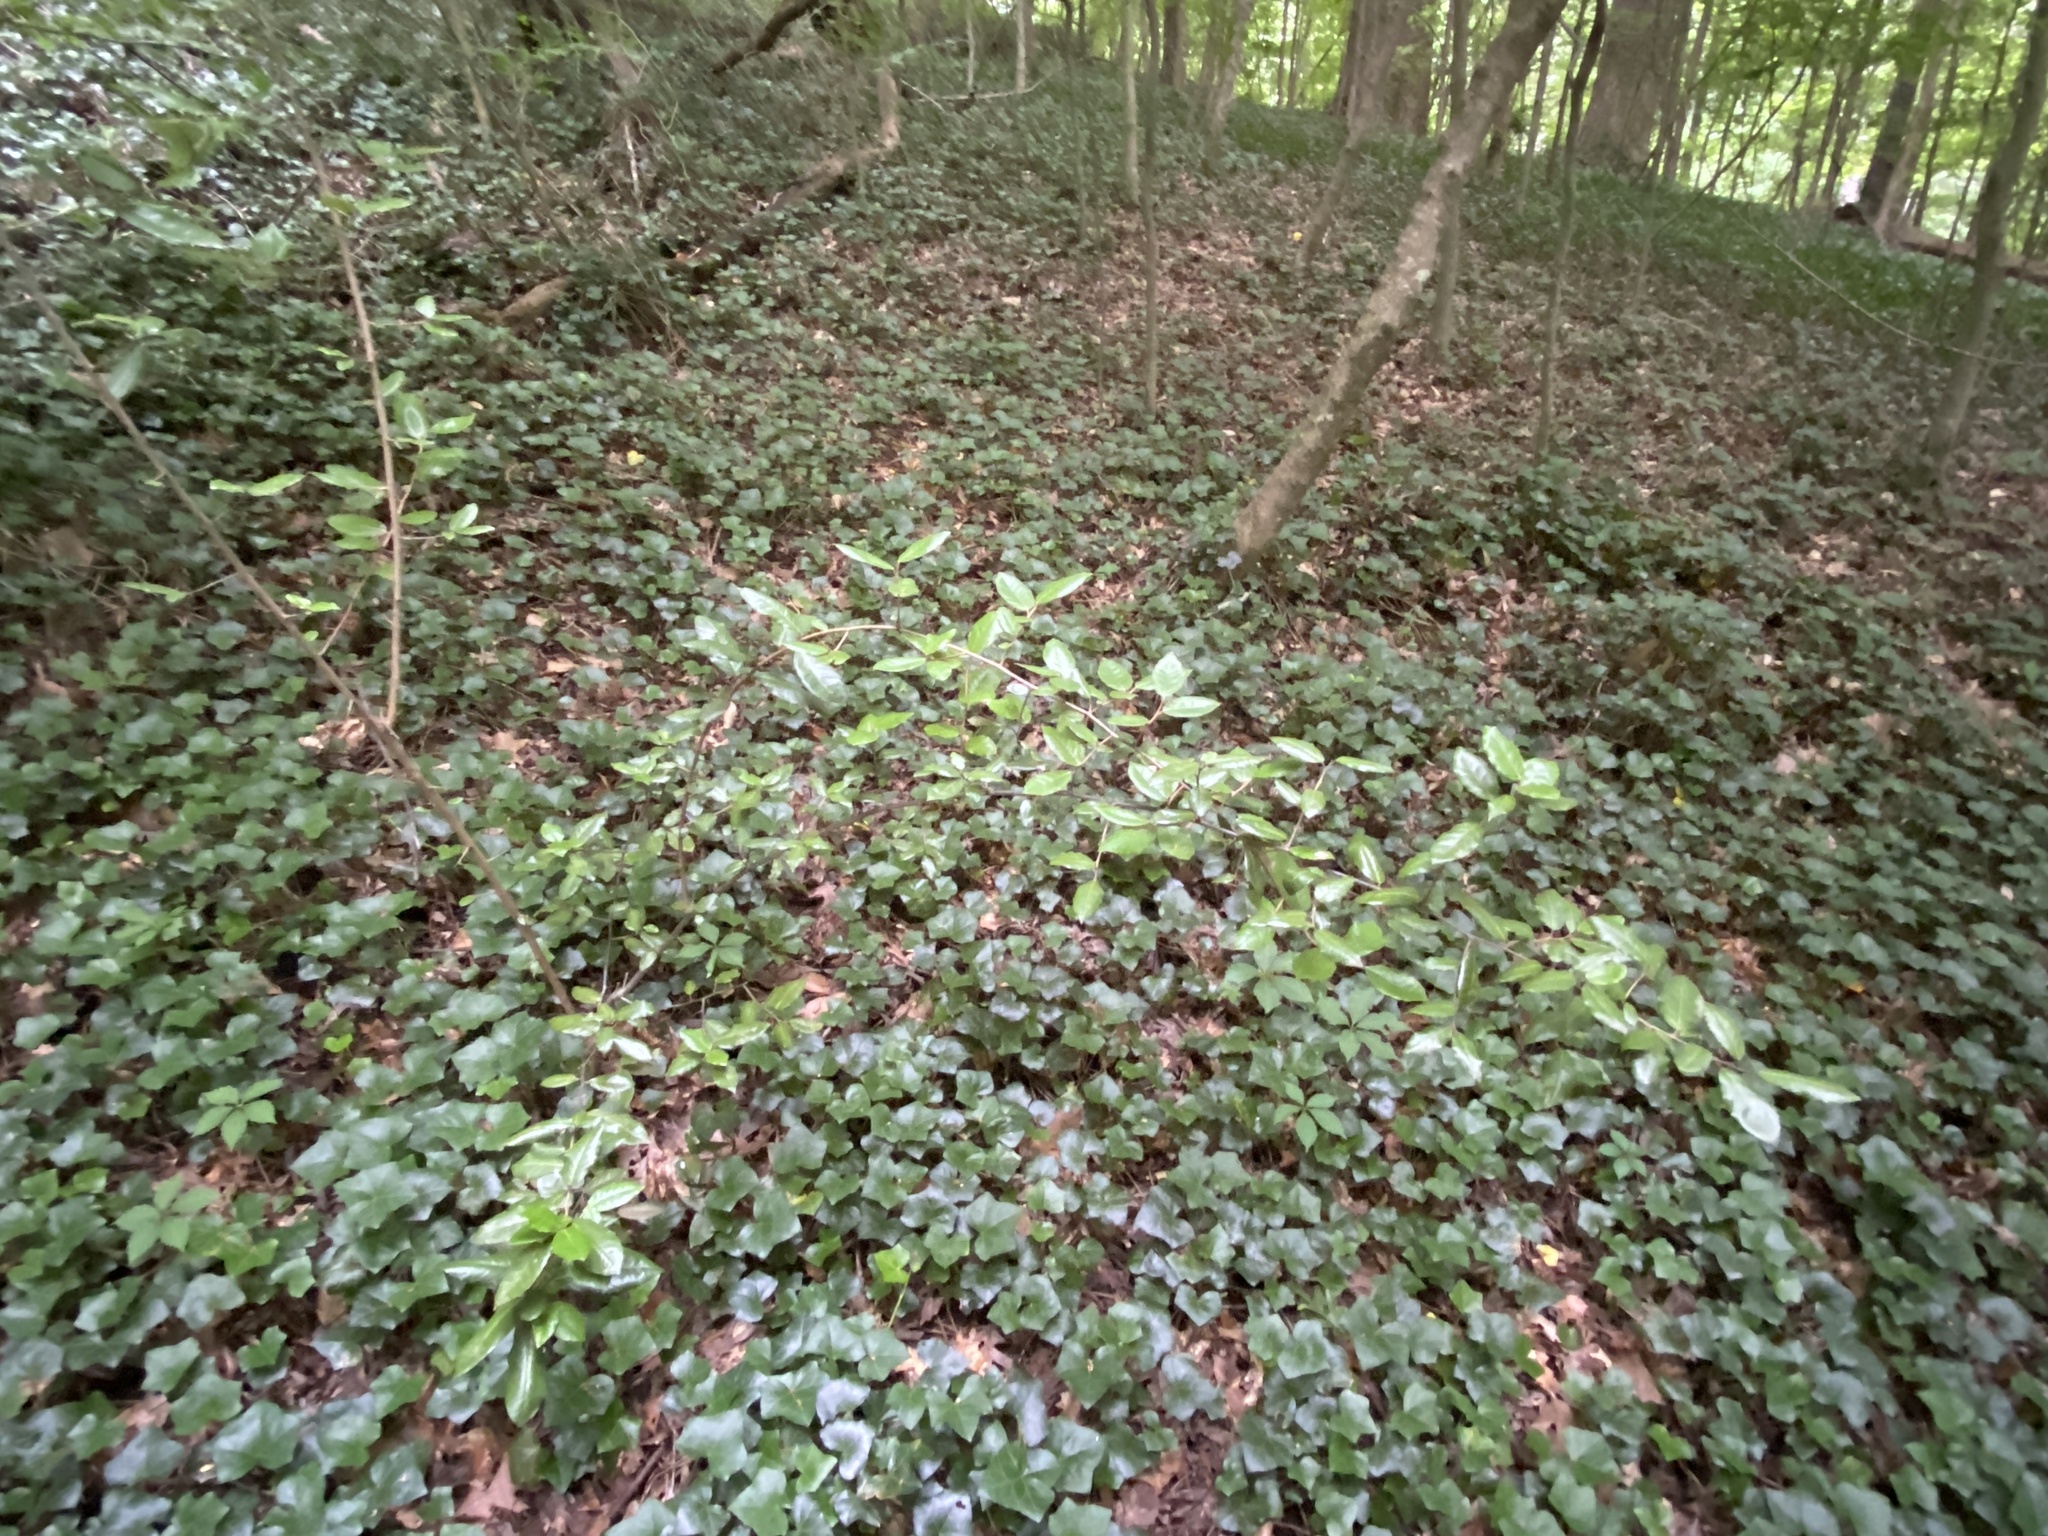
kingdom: Plantae
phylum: Tracheophyta
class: Magnoliopsida
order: Rosales
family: Elaeagnaceae
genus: Elaeagnus
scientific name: Elaeagnus pungens
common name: Spiny oleaster
